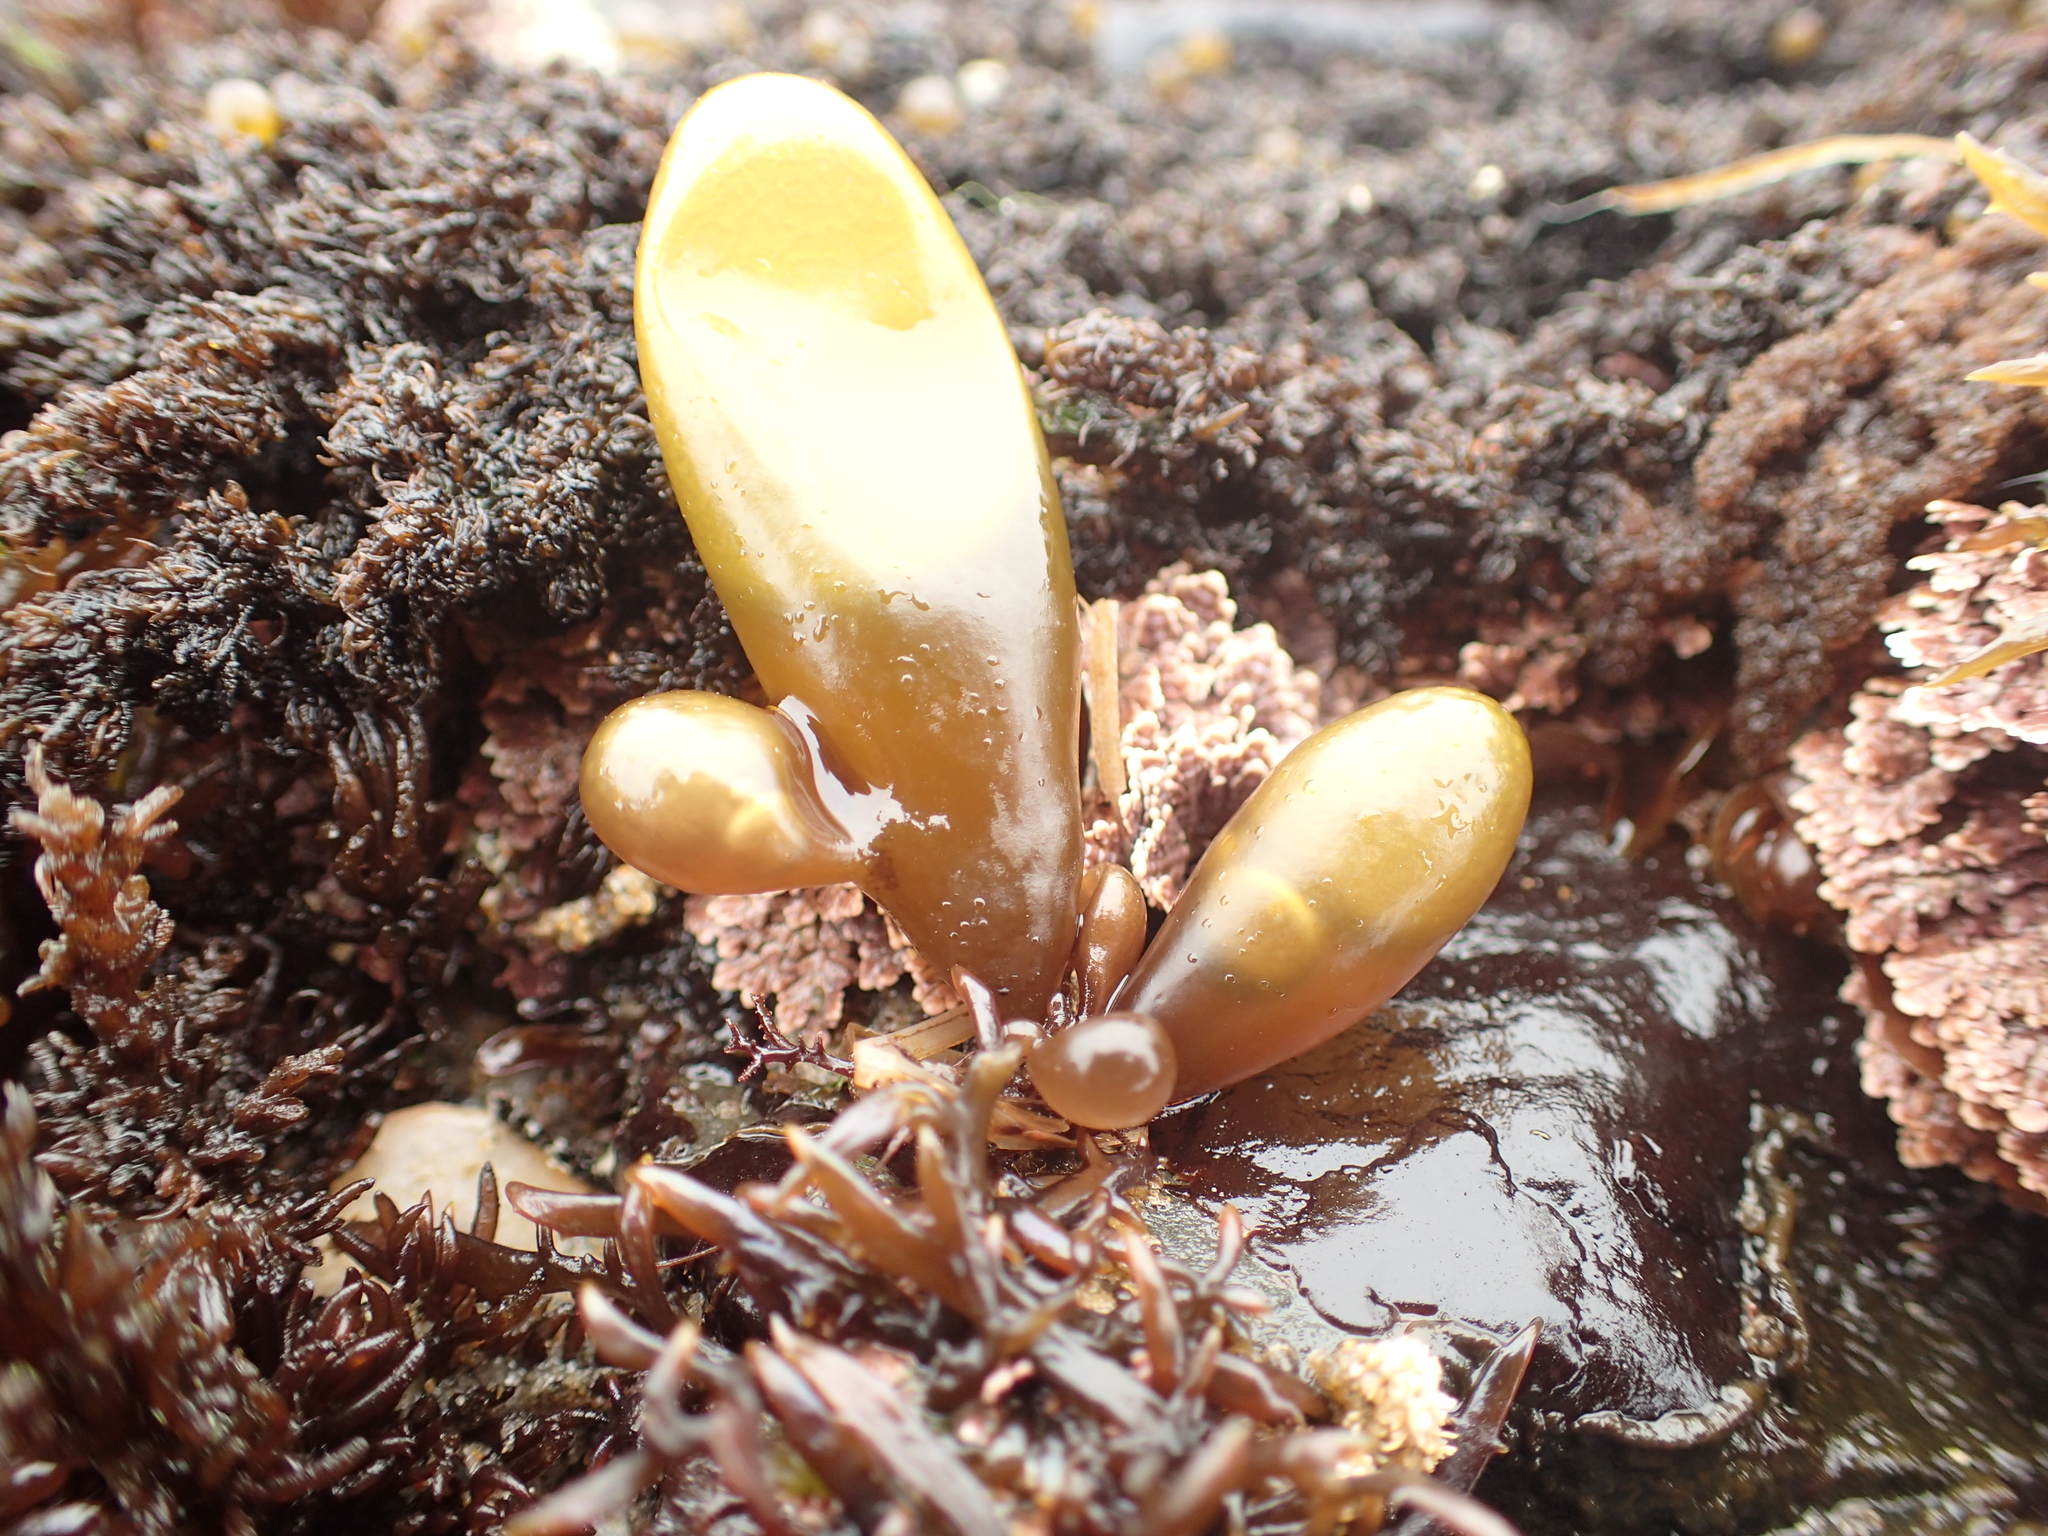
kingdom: Plantae
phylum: Rhodophyta
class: Florideophyceae
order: Palmariales
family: Palmariaceae
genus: Halosaccion
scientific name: Halosaccion glandiforme
